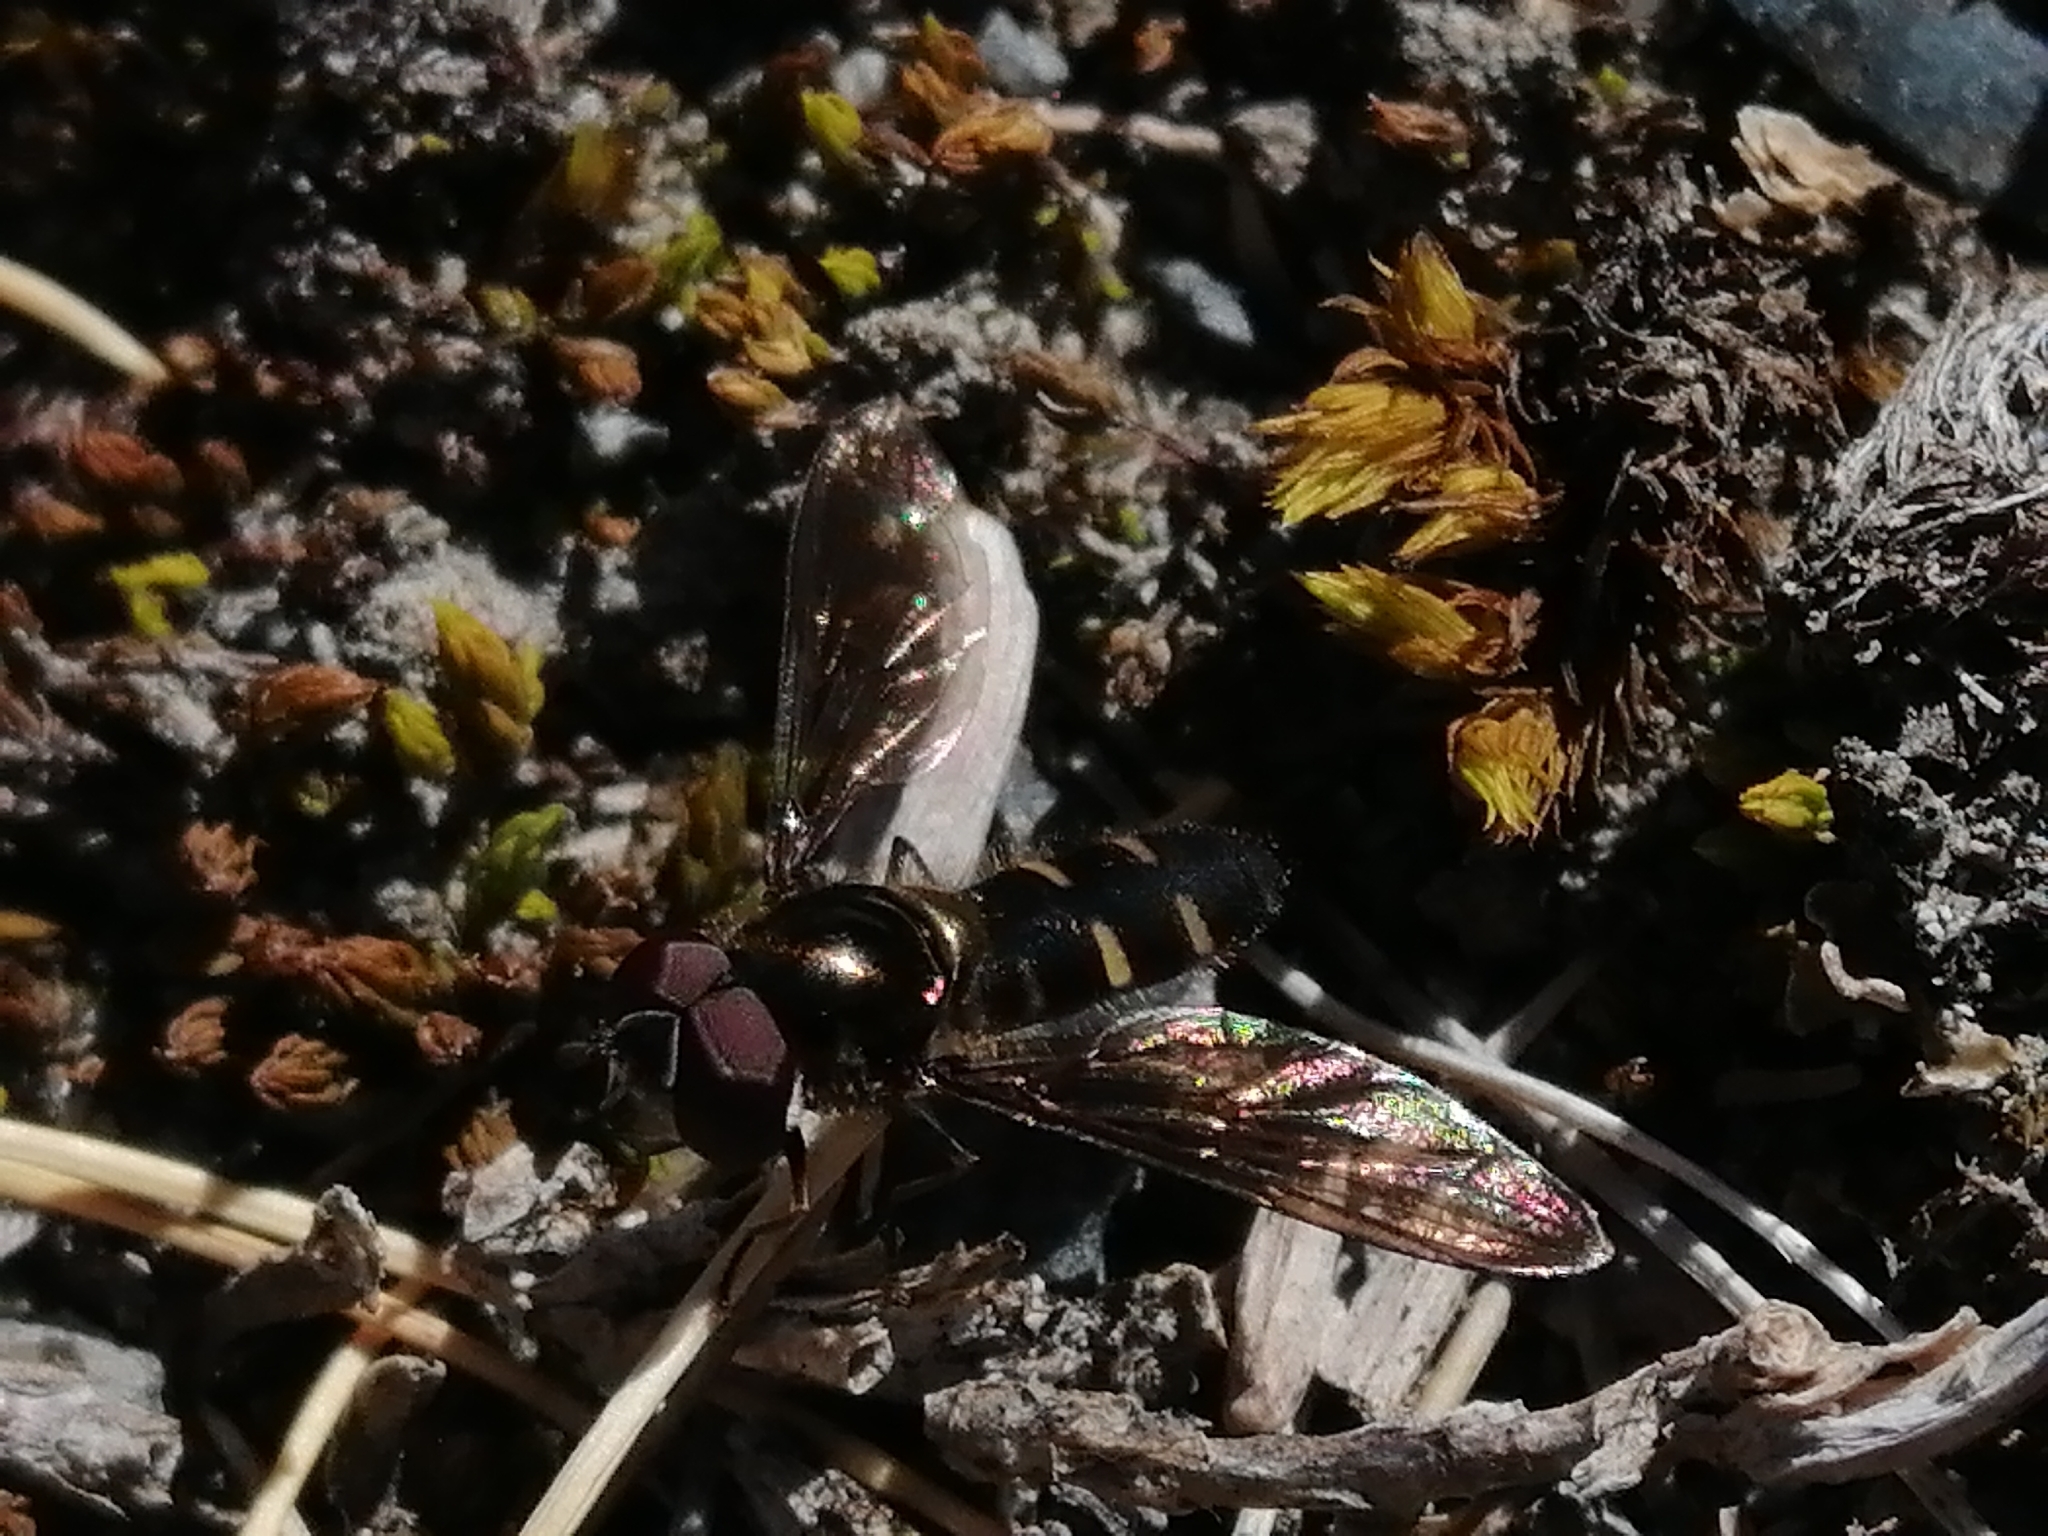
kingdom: Animalia
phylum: Arthropoda
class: Insecta
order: Diptera
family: Syrphidae
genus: Melangyna
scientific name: Melangyna novaezelandiae
